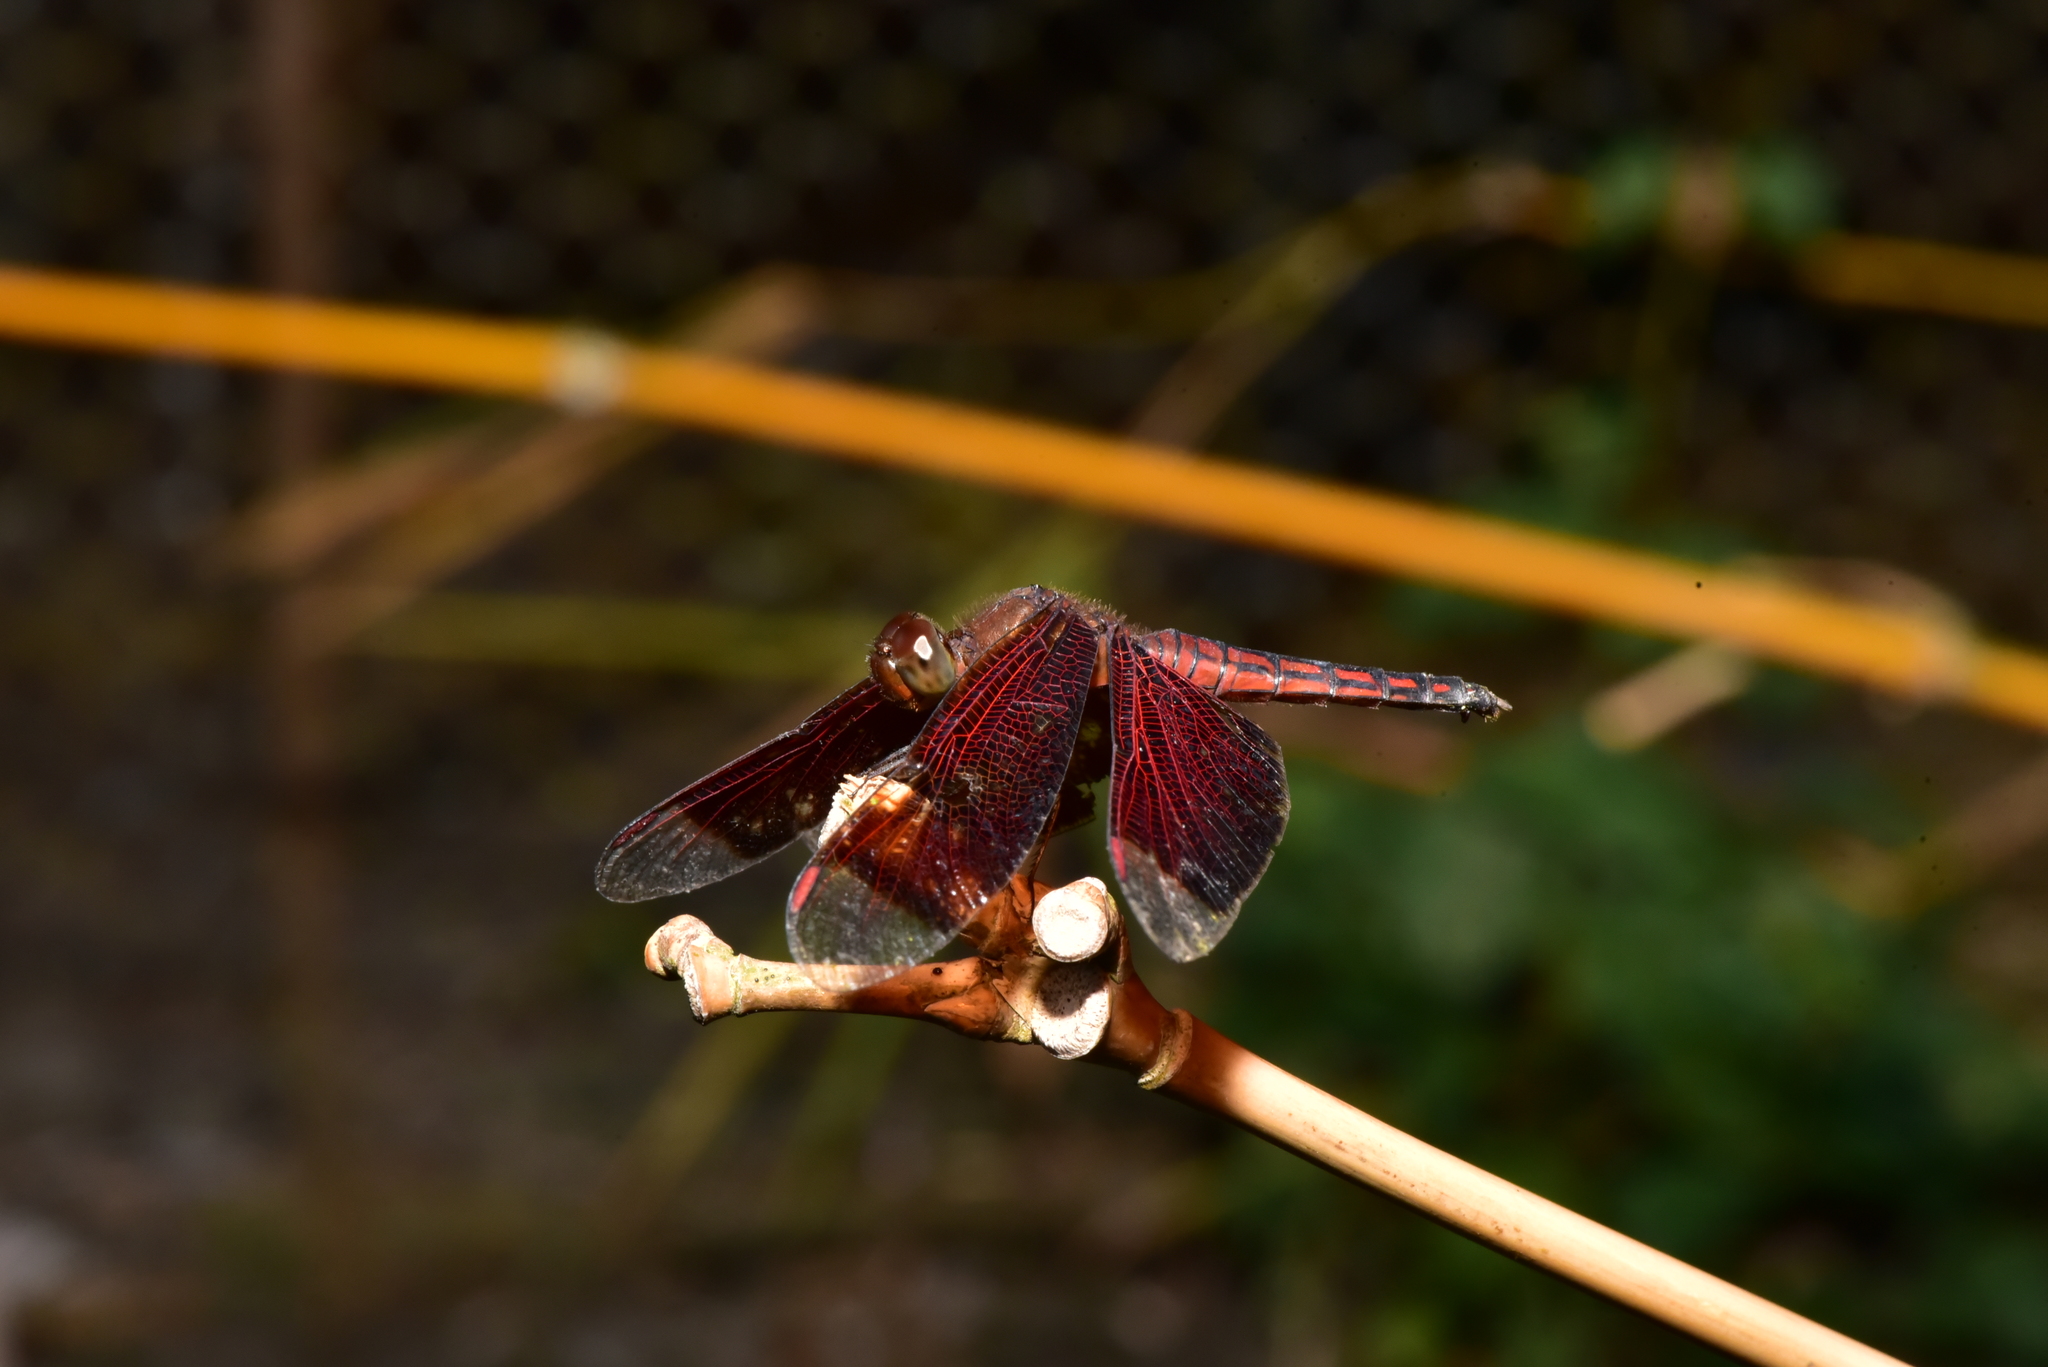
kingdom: Animalia
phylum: Arthropoda
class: Insecta
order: Odonata
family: Libellulidae
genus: Neurothemis
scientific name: Neurothemis taiwanensis
